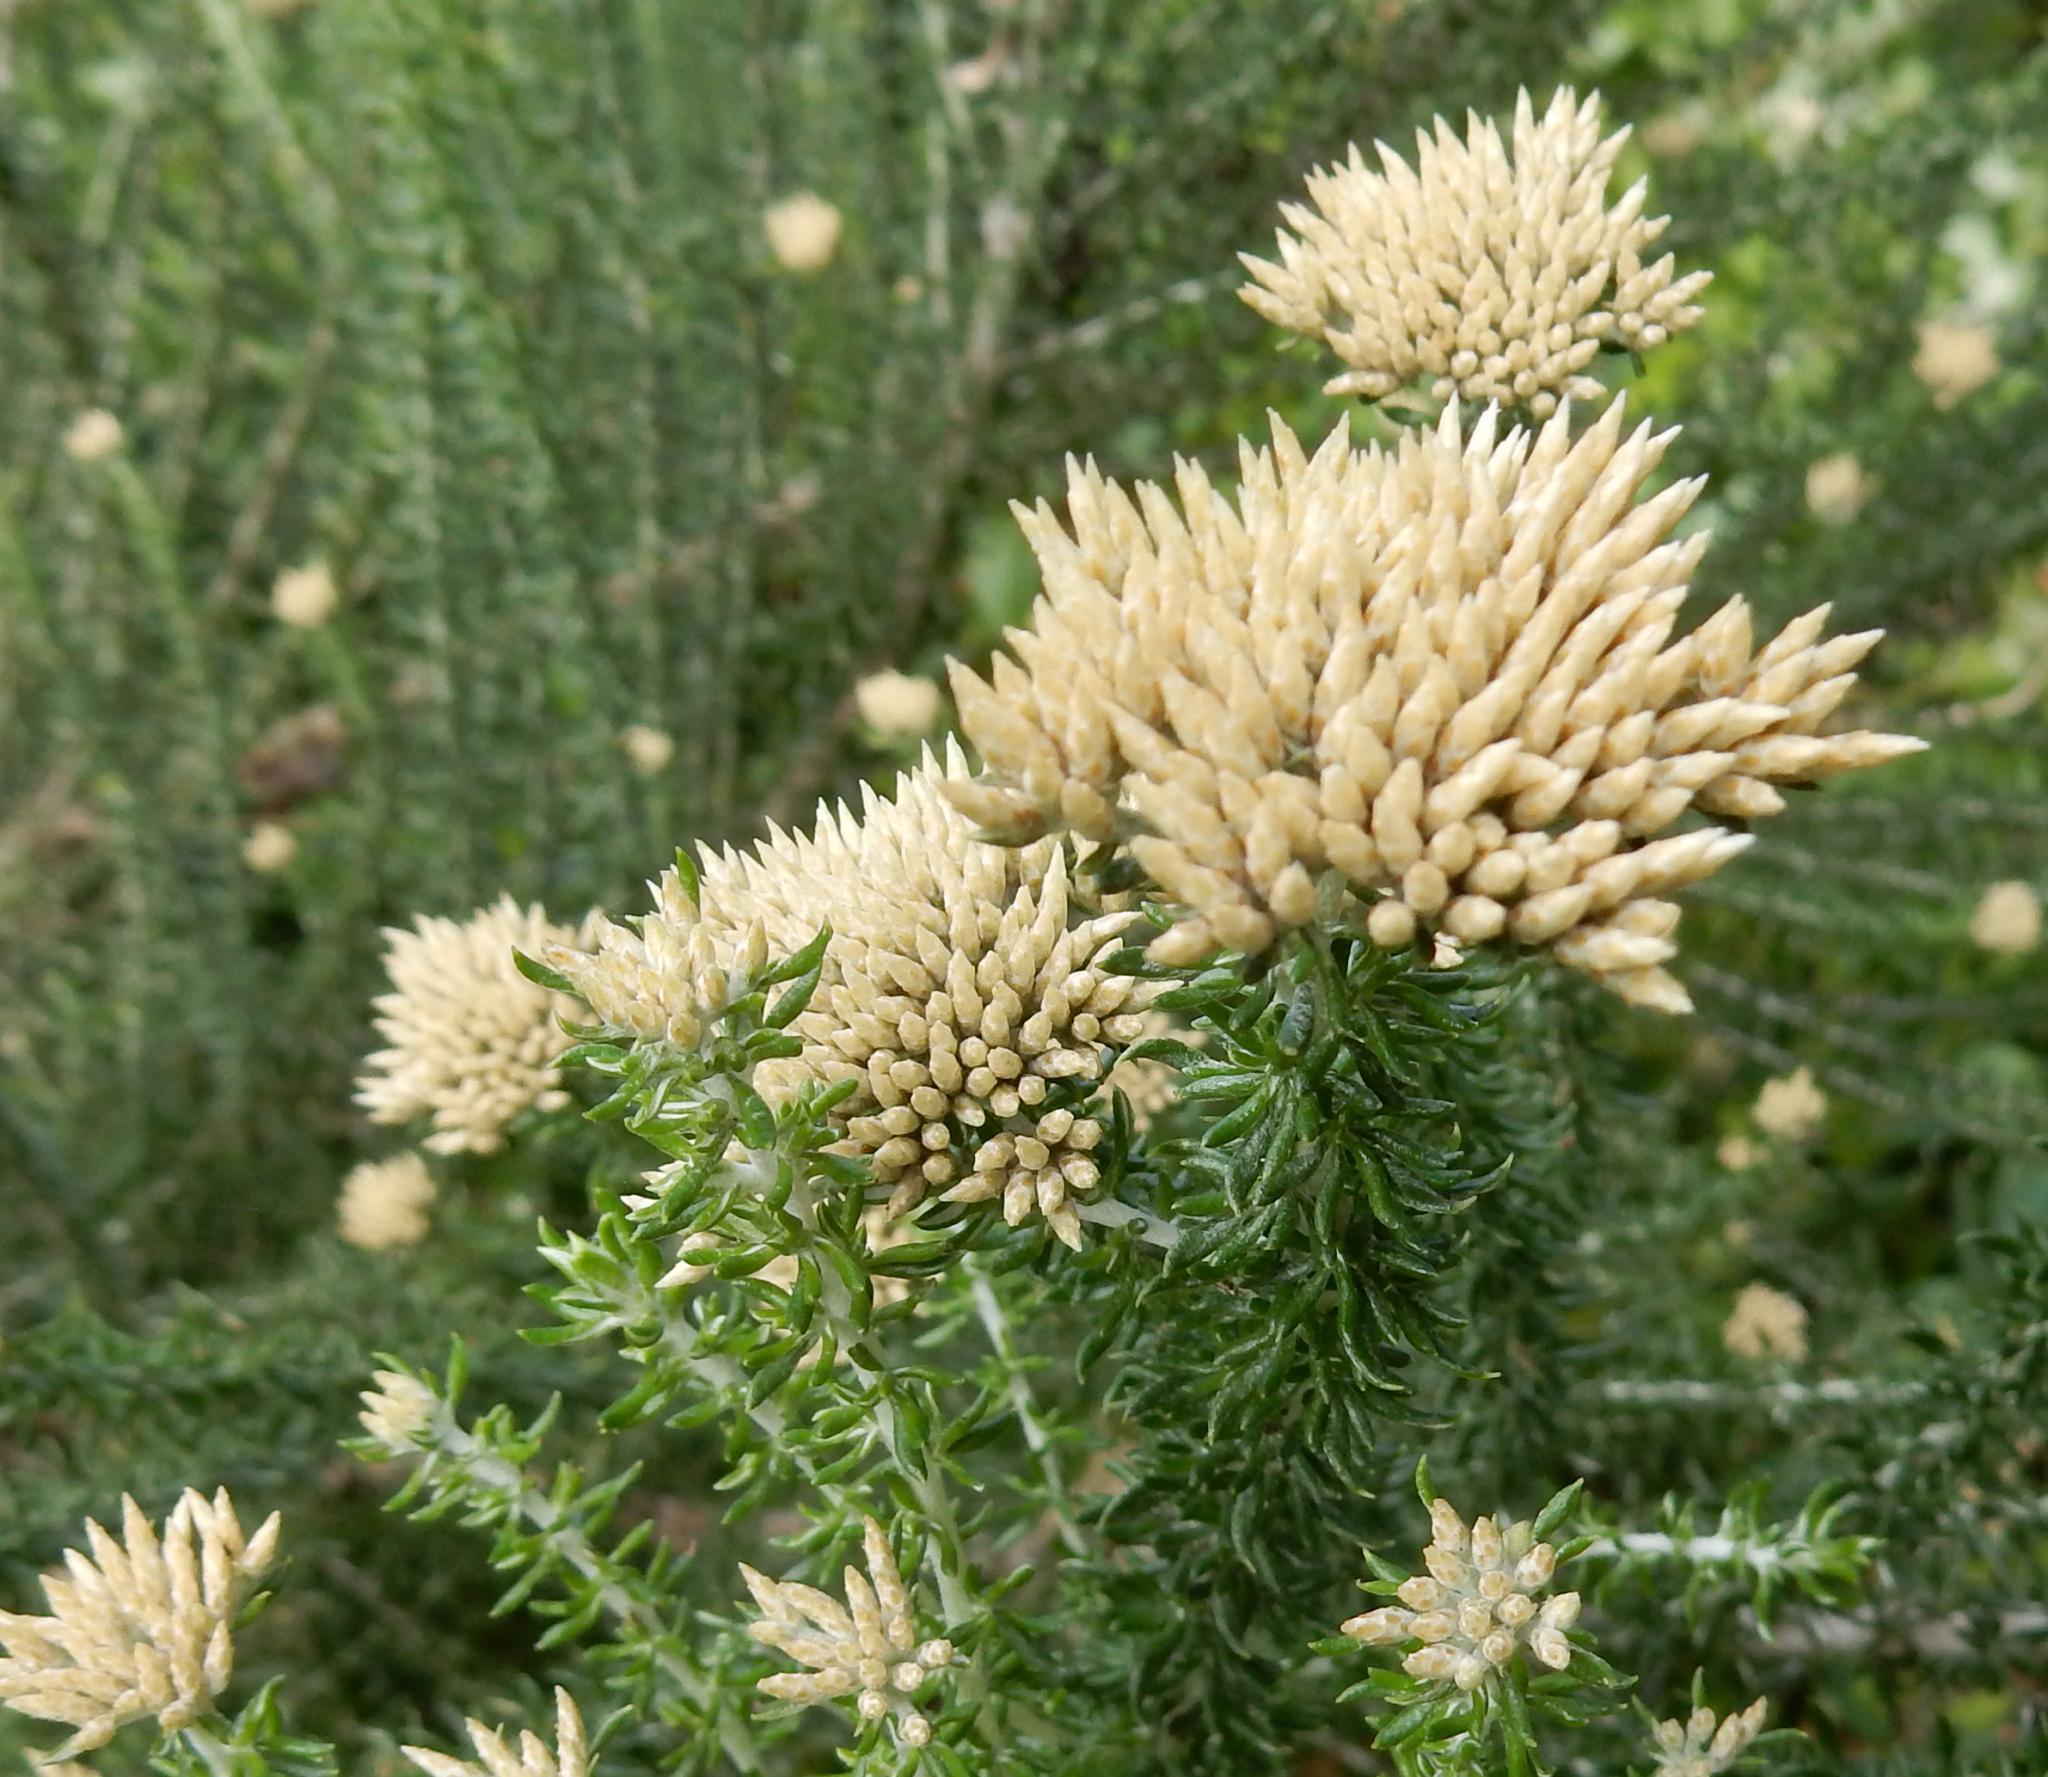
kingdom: Plantae
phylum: Tracheophyta
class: Magnoliopsida
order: Asterales
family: Asteraceae
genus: Metalasia
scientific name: Metalasia muricata
